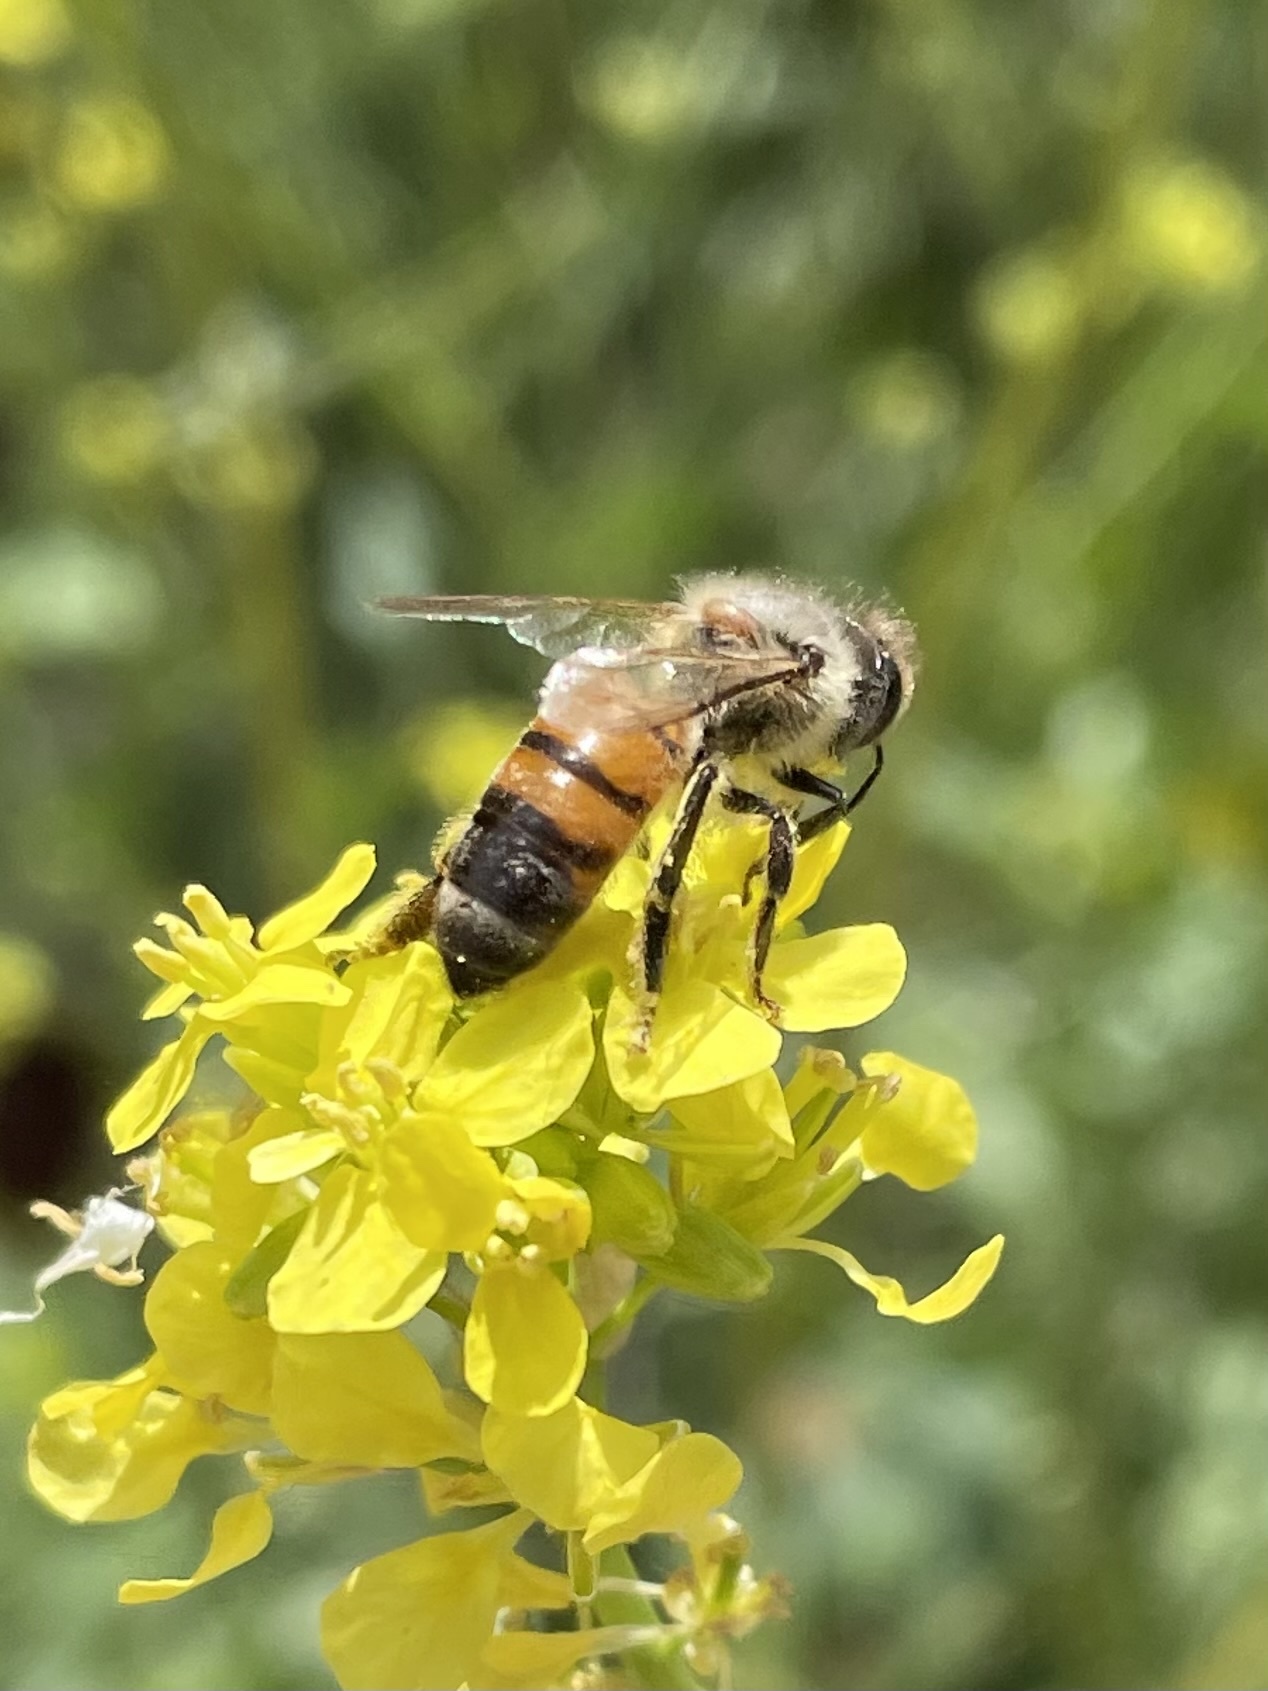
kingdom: Animalia
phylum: Arthropoda
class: Insecta
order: Hymenoptera
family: Apidae
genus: Apis
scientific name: Apis mellifera
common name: Honey bee
